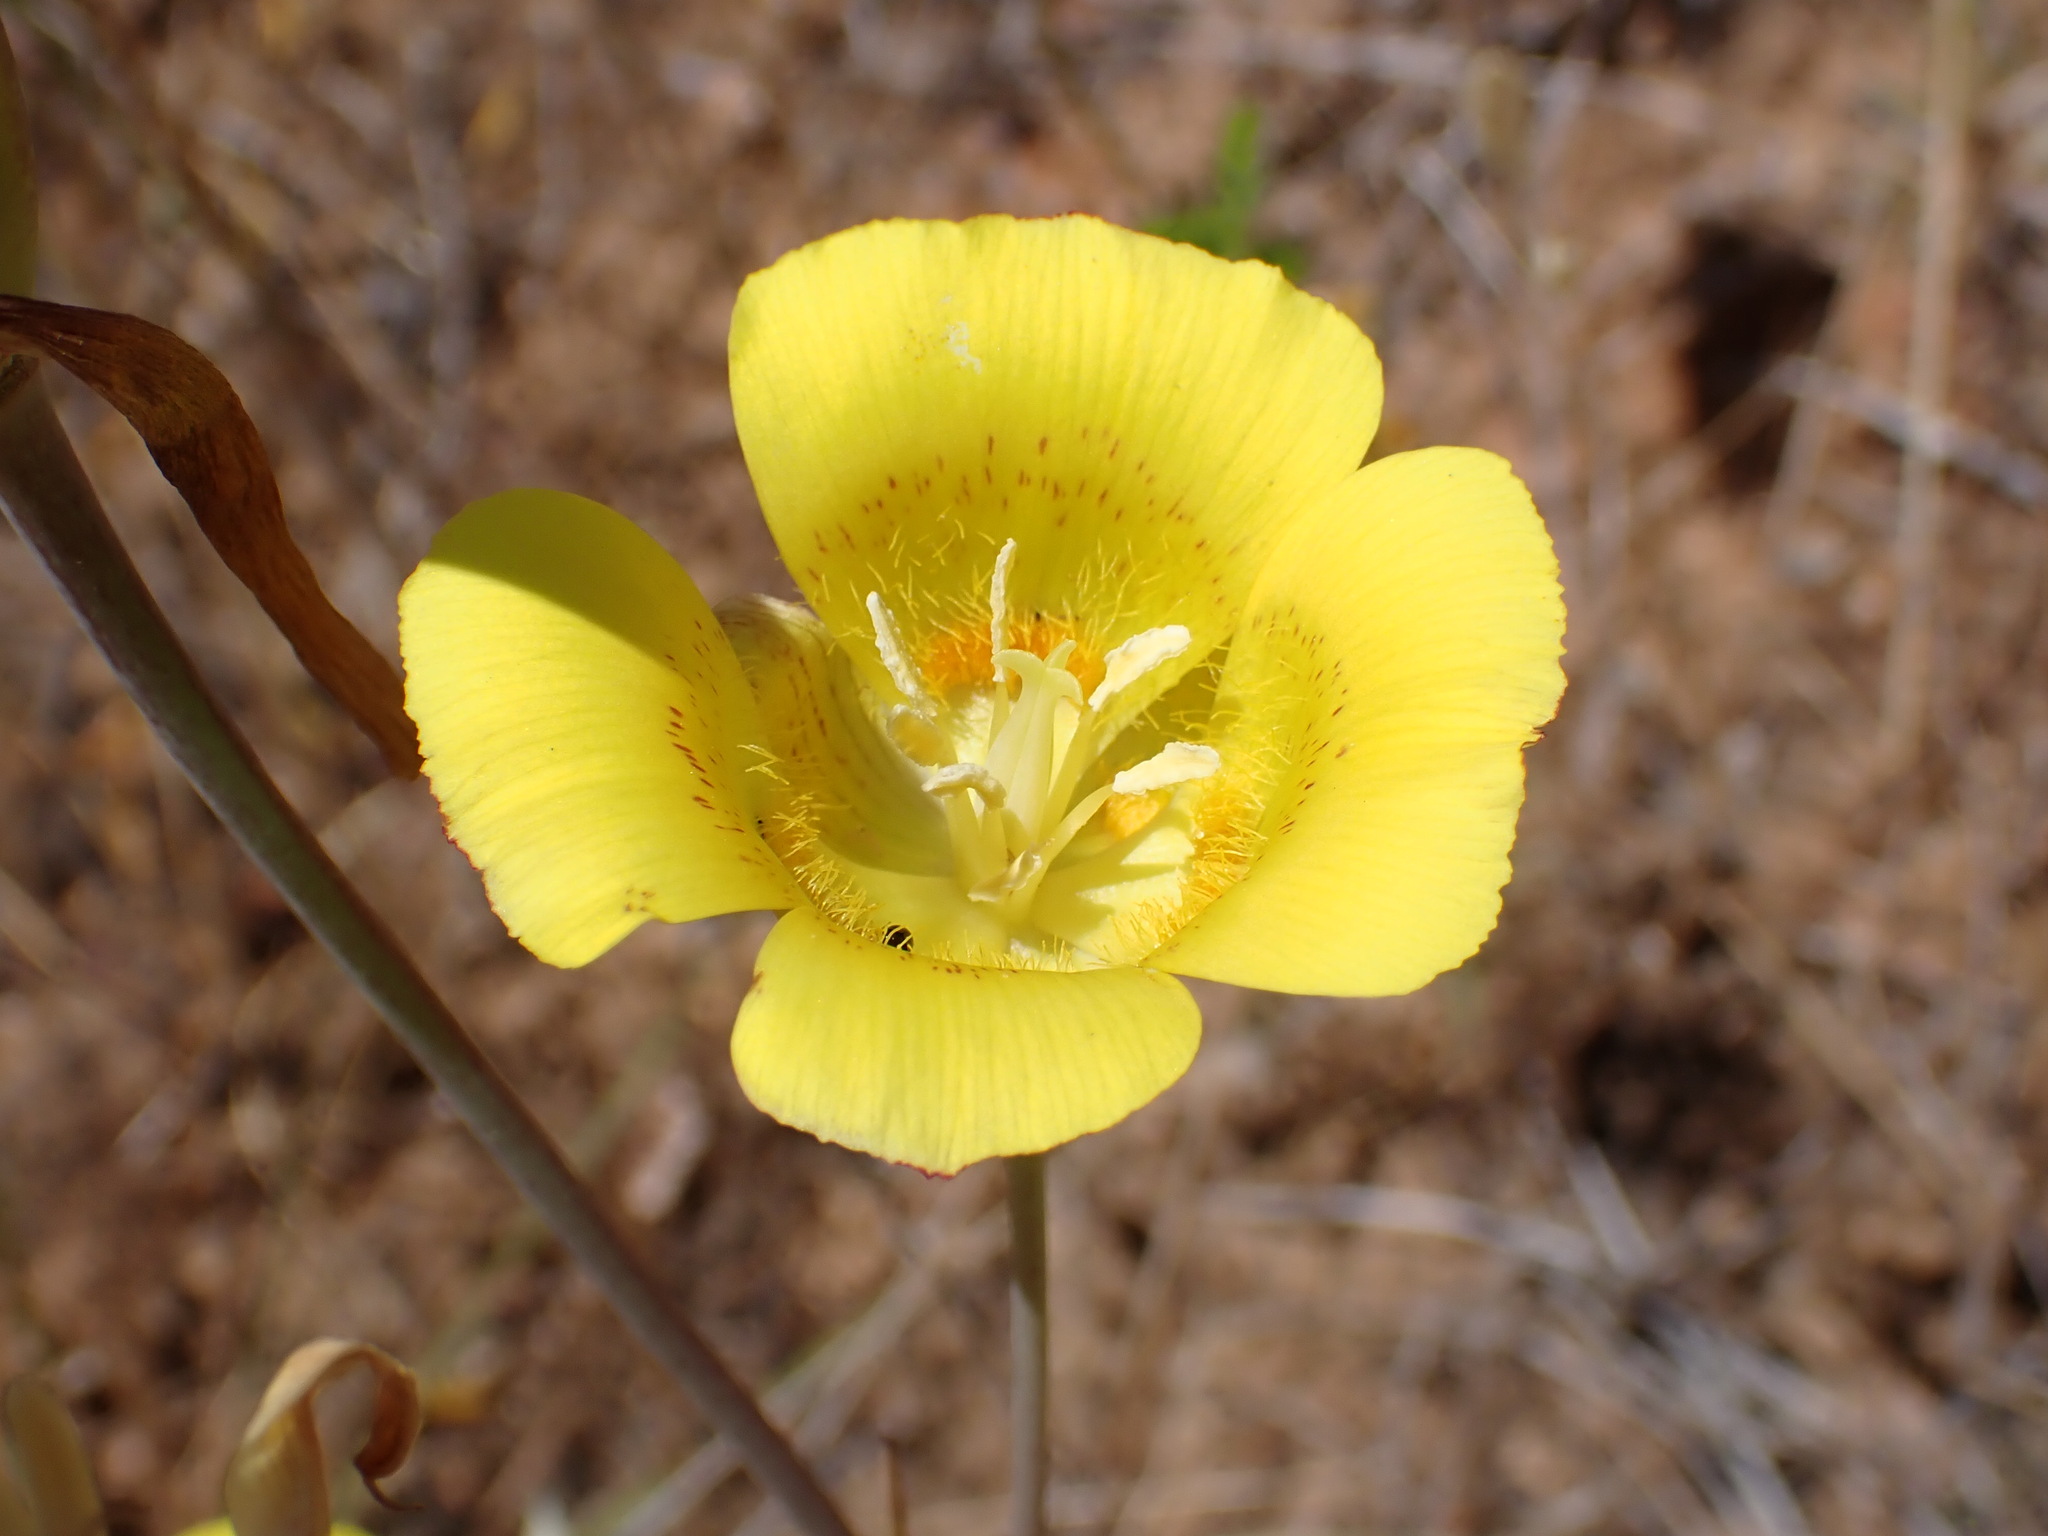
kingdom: Plantae
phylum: Tracheophyta
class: Liliopsida
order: Liliales
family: Liliaceae
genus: Calochortus
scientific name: Calochortus luteus
